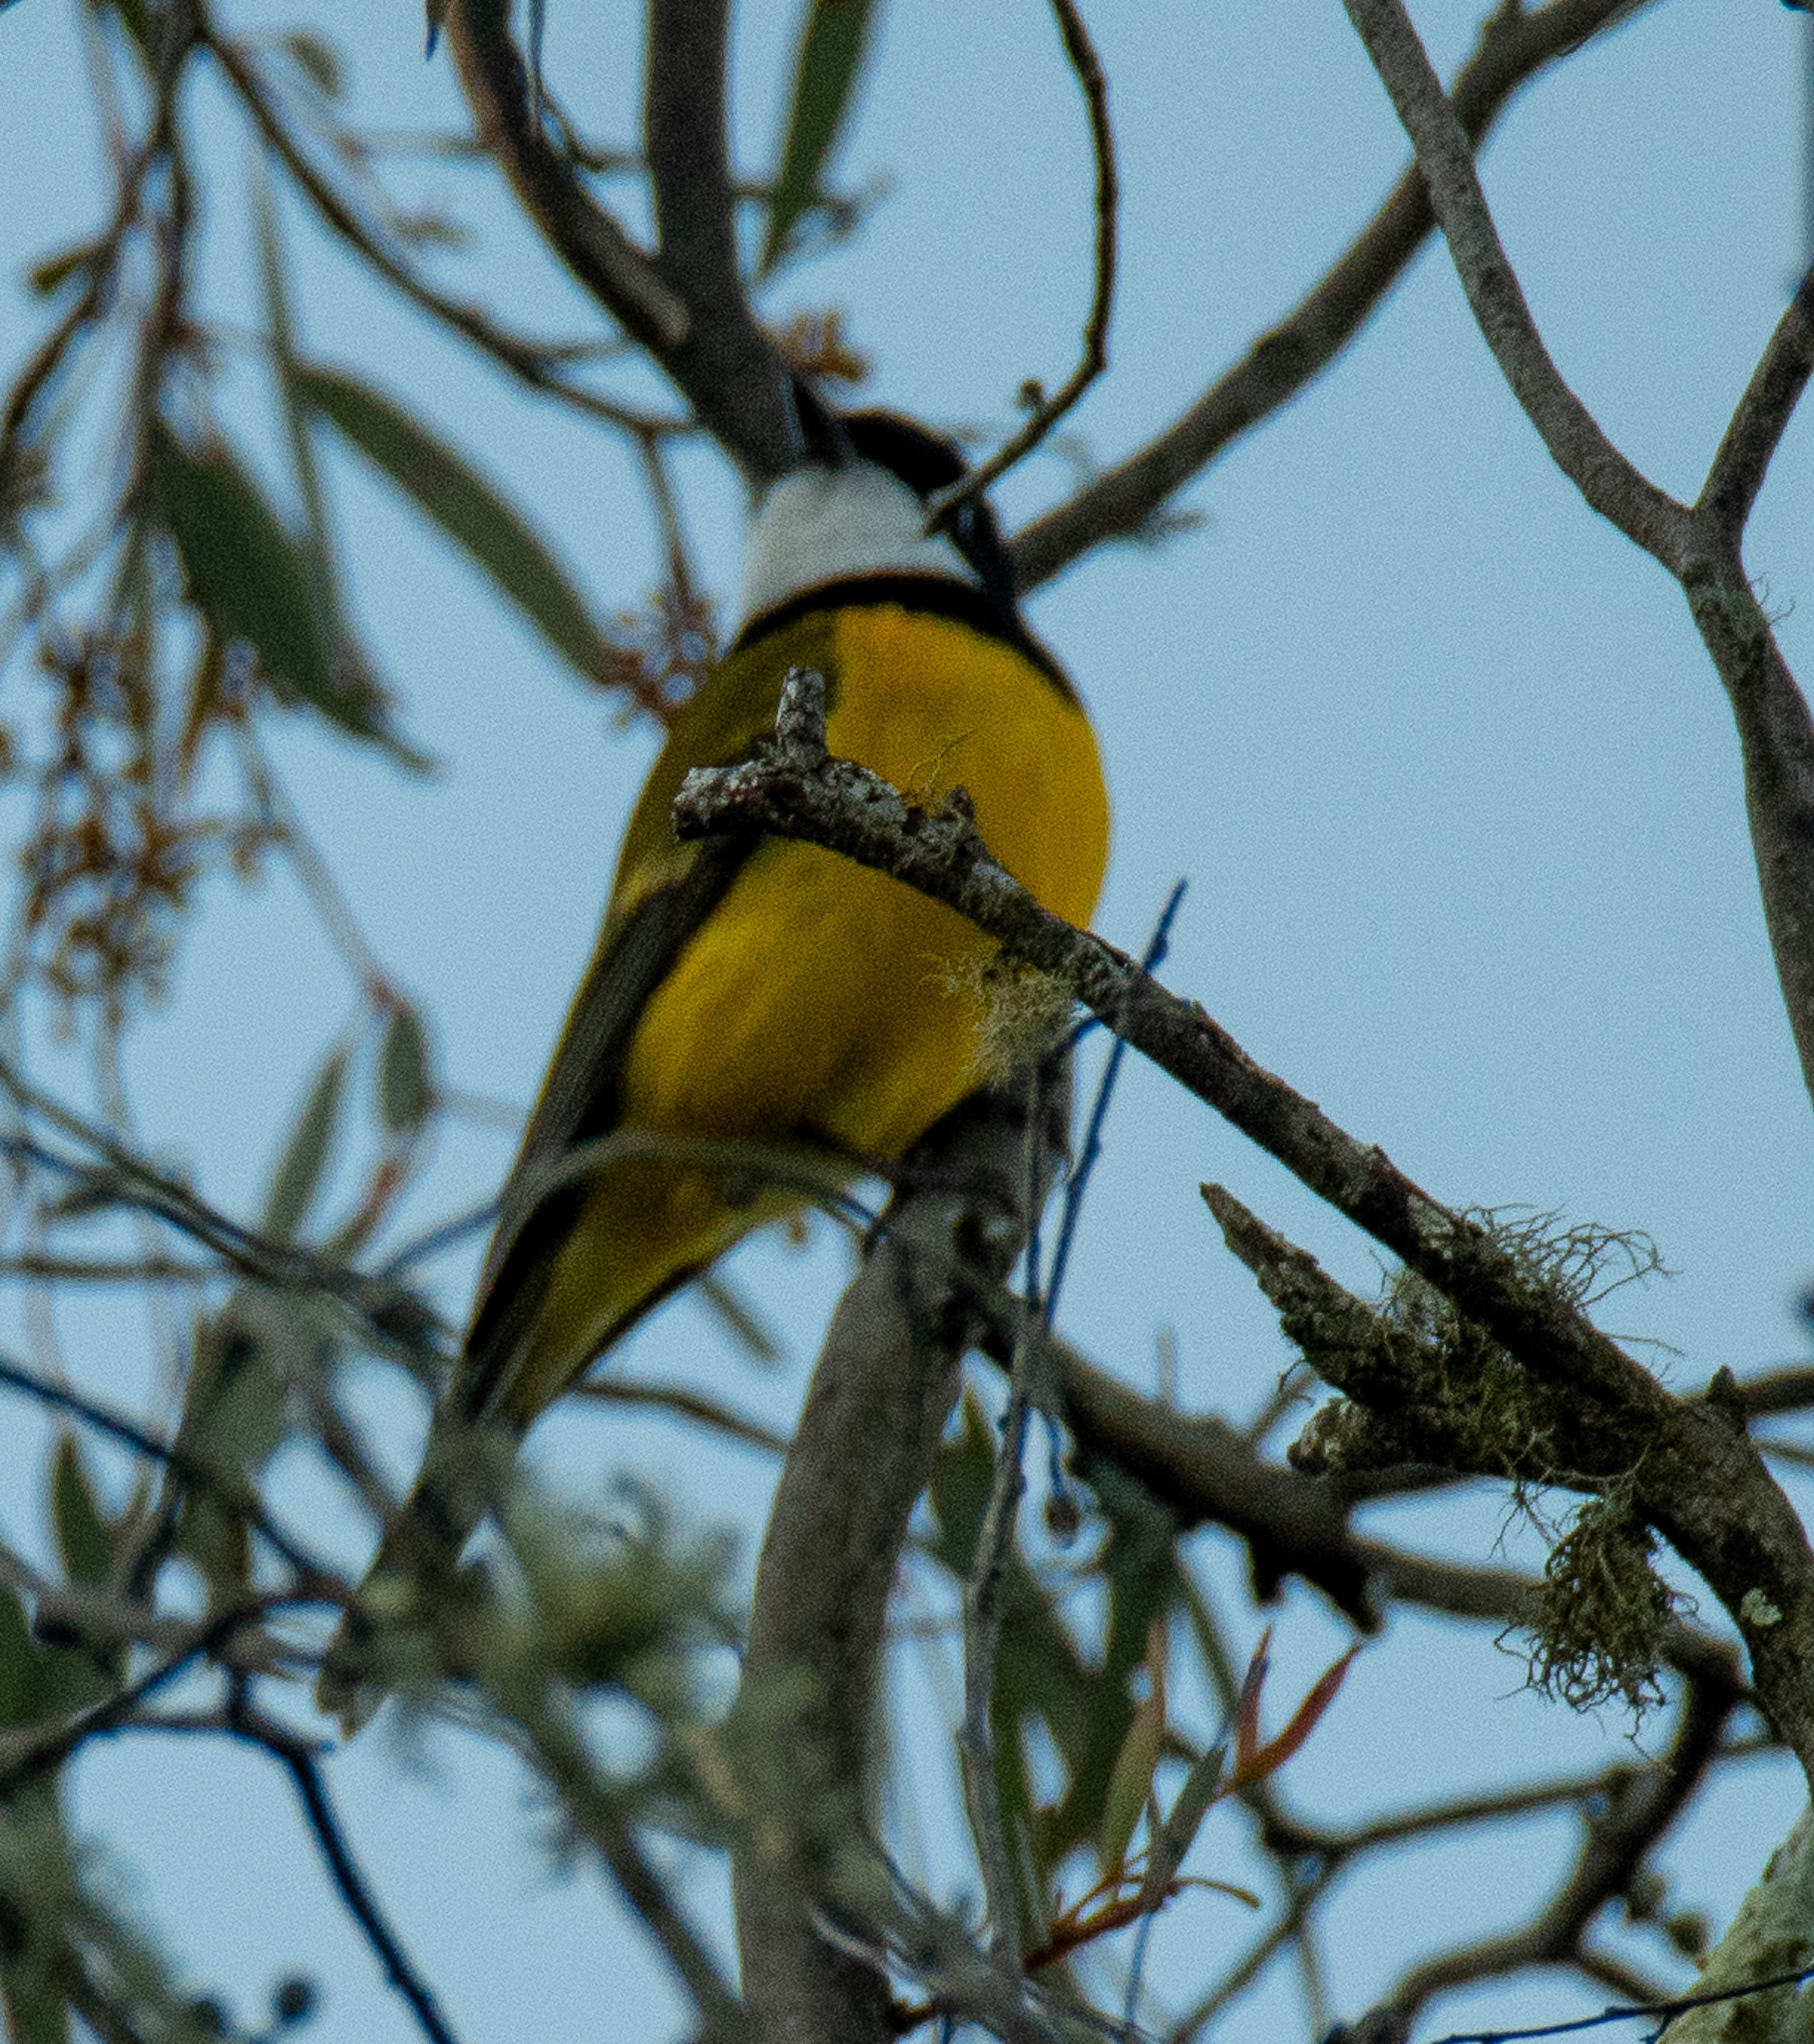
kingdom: Animalia
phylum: Chordata
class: Aves
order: Passeriformes
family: Pachycephalidae
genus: Pachycephala
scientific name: Pachycephala pectoralis
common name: Australian golden whistler
